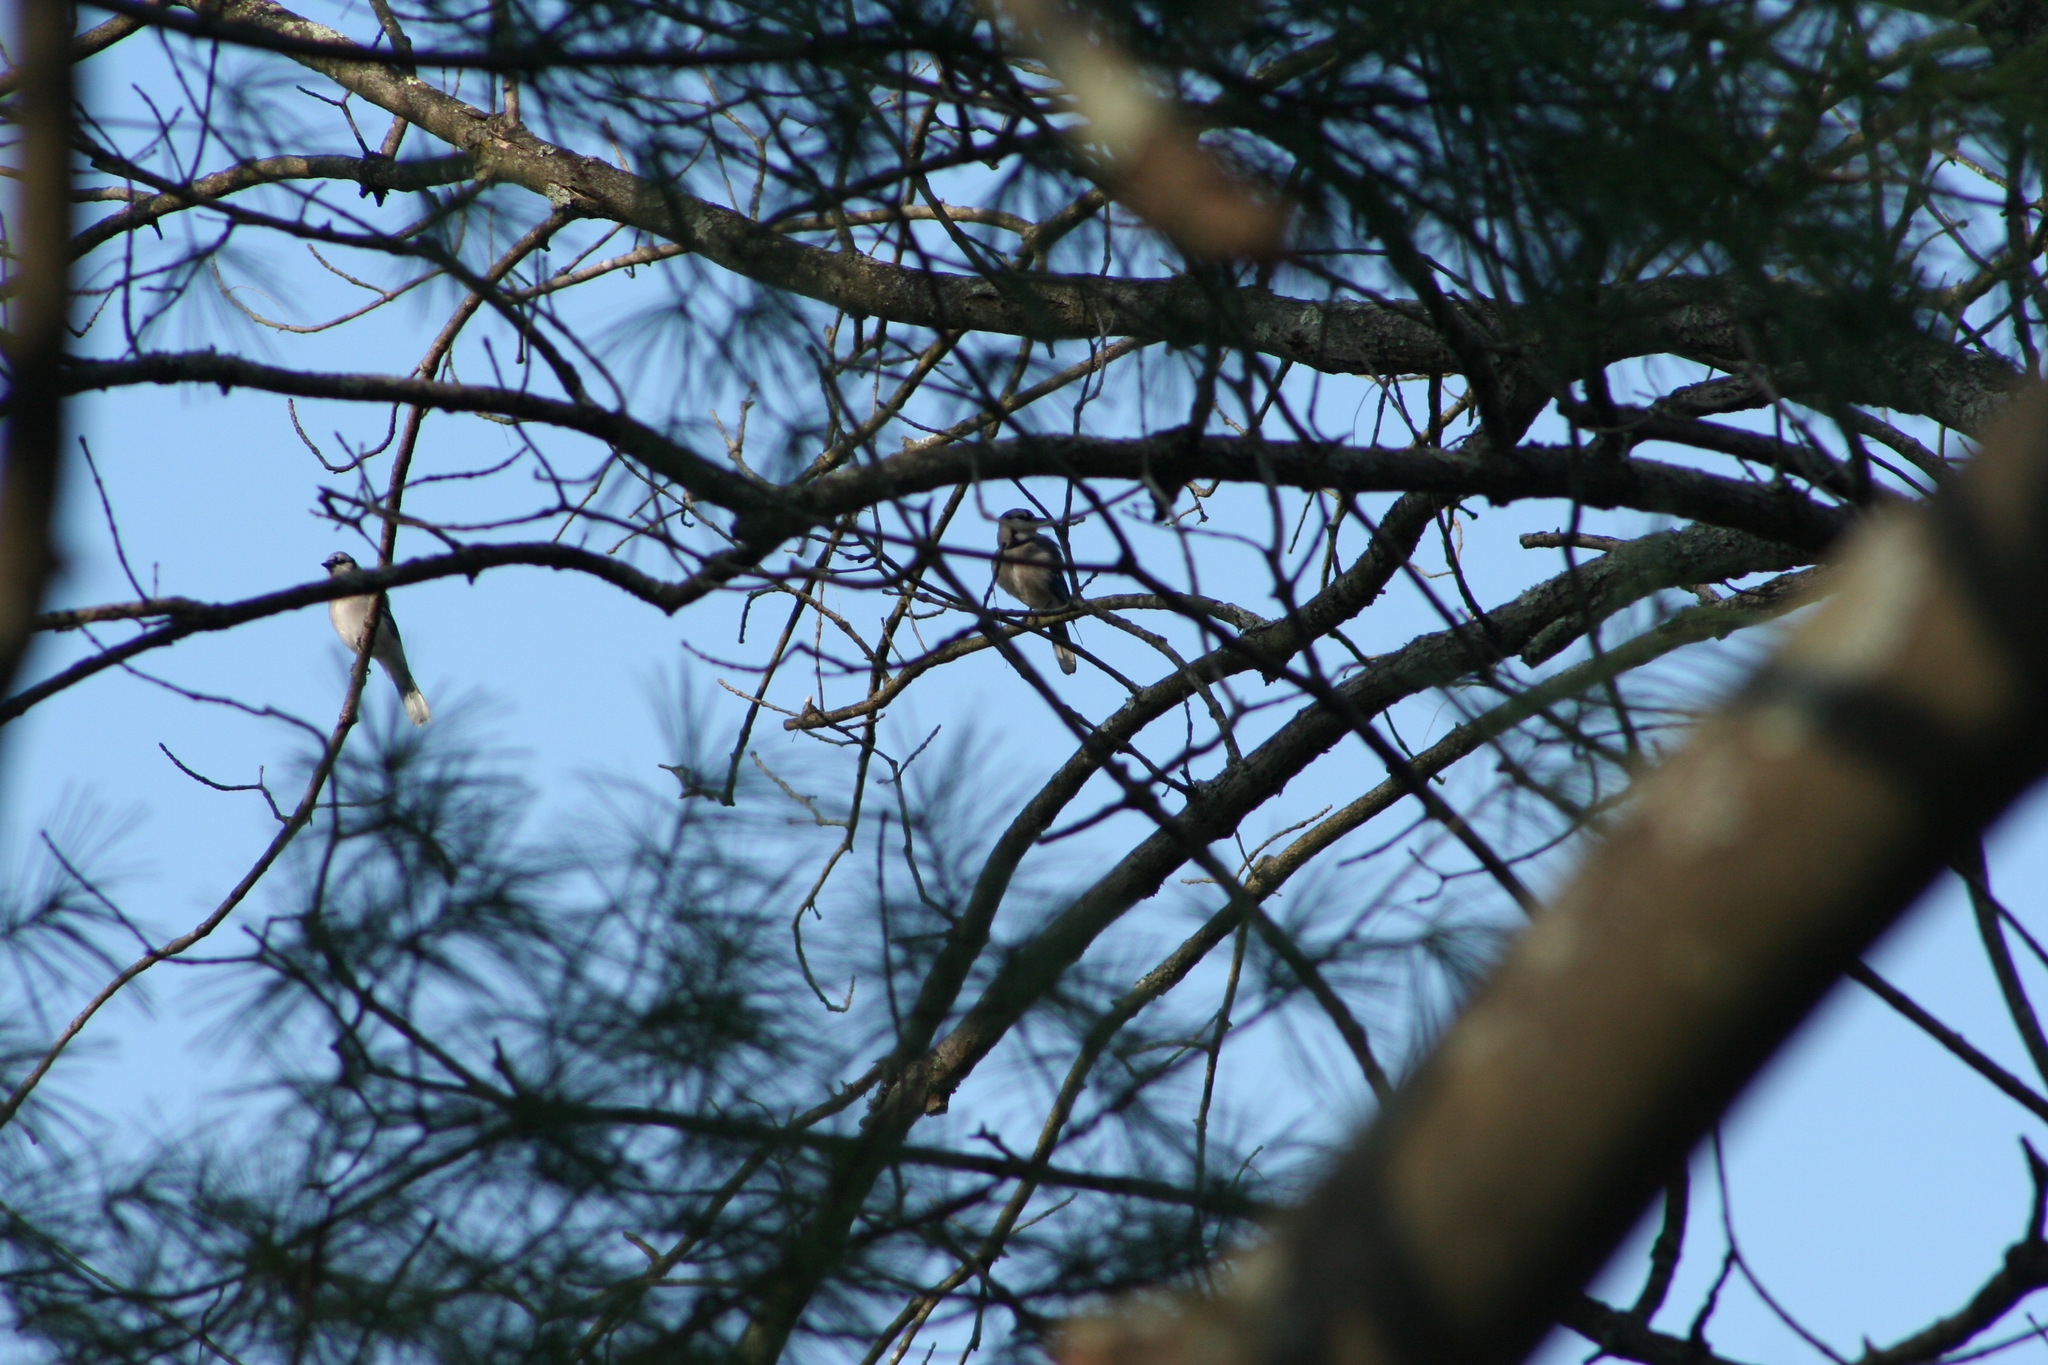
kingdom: Animalia
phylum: Chordata
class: Aves
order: Passeriformes
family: Corvidae
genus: Cyanocitta
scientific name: Cyanocitta cristata
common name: Blue jay
